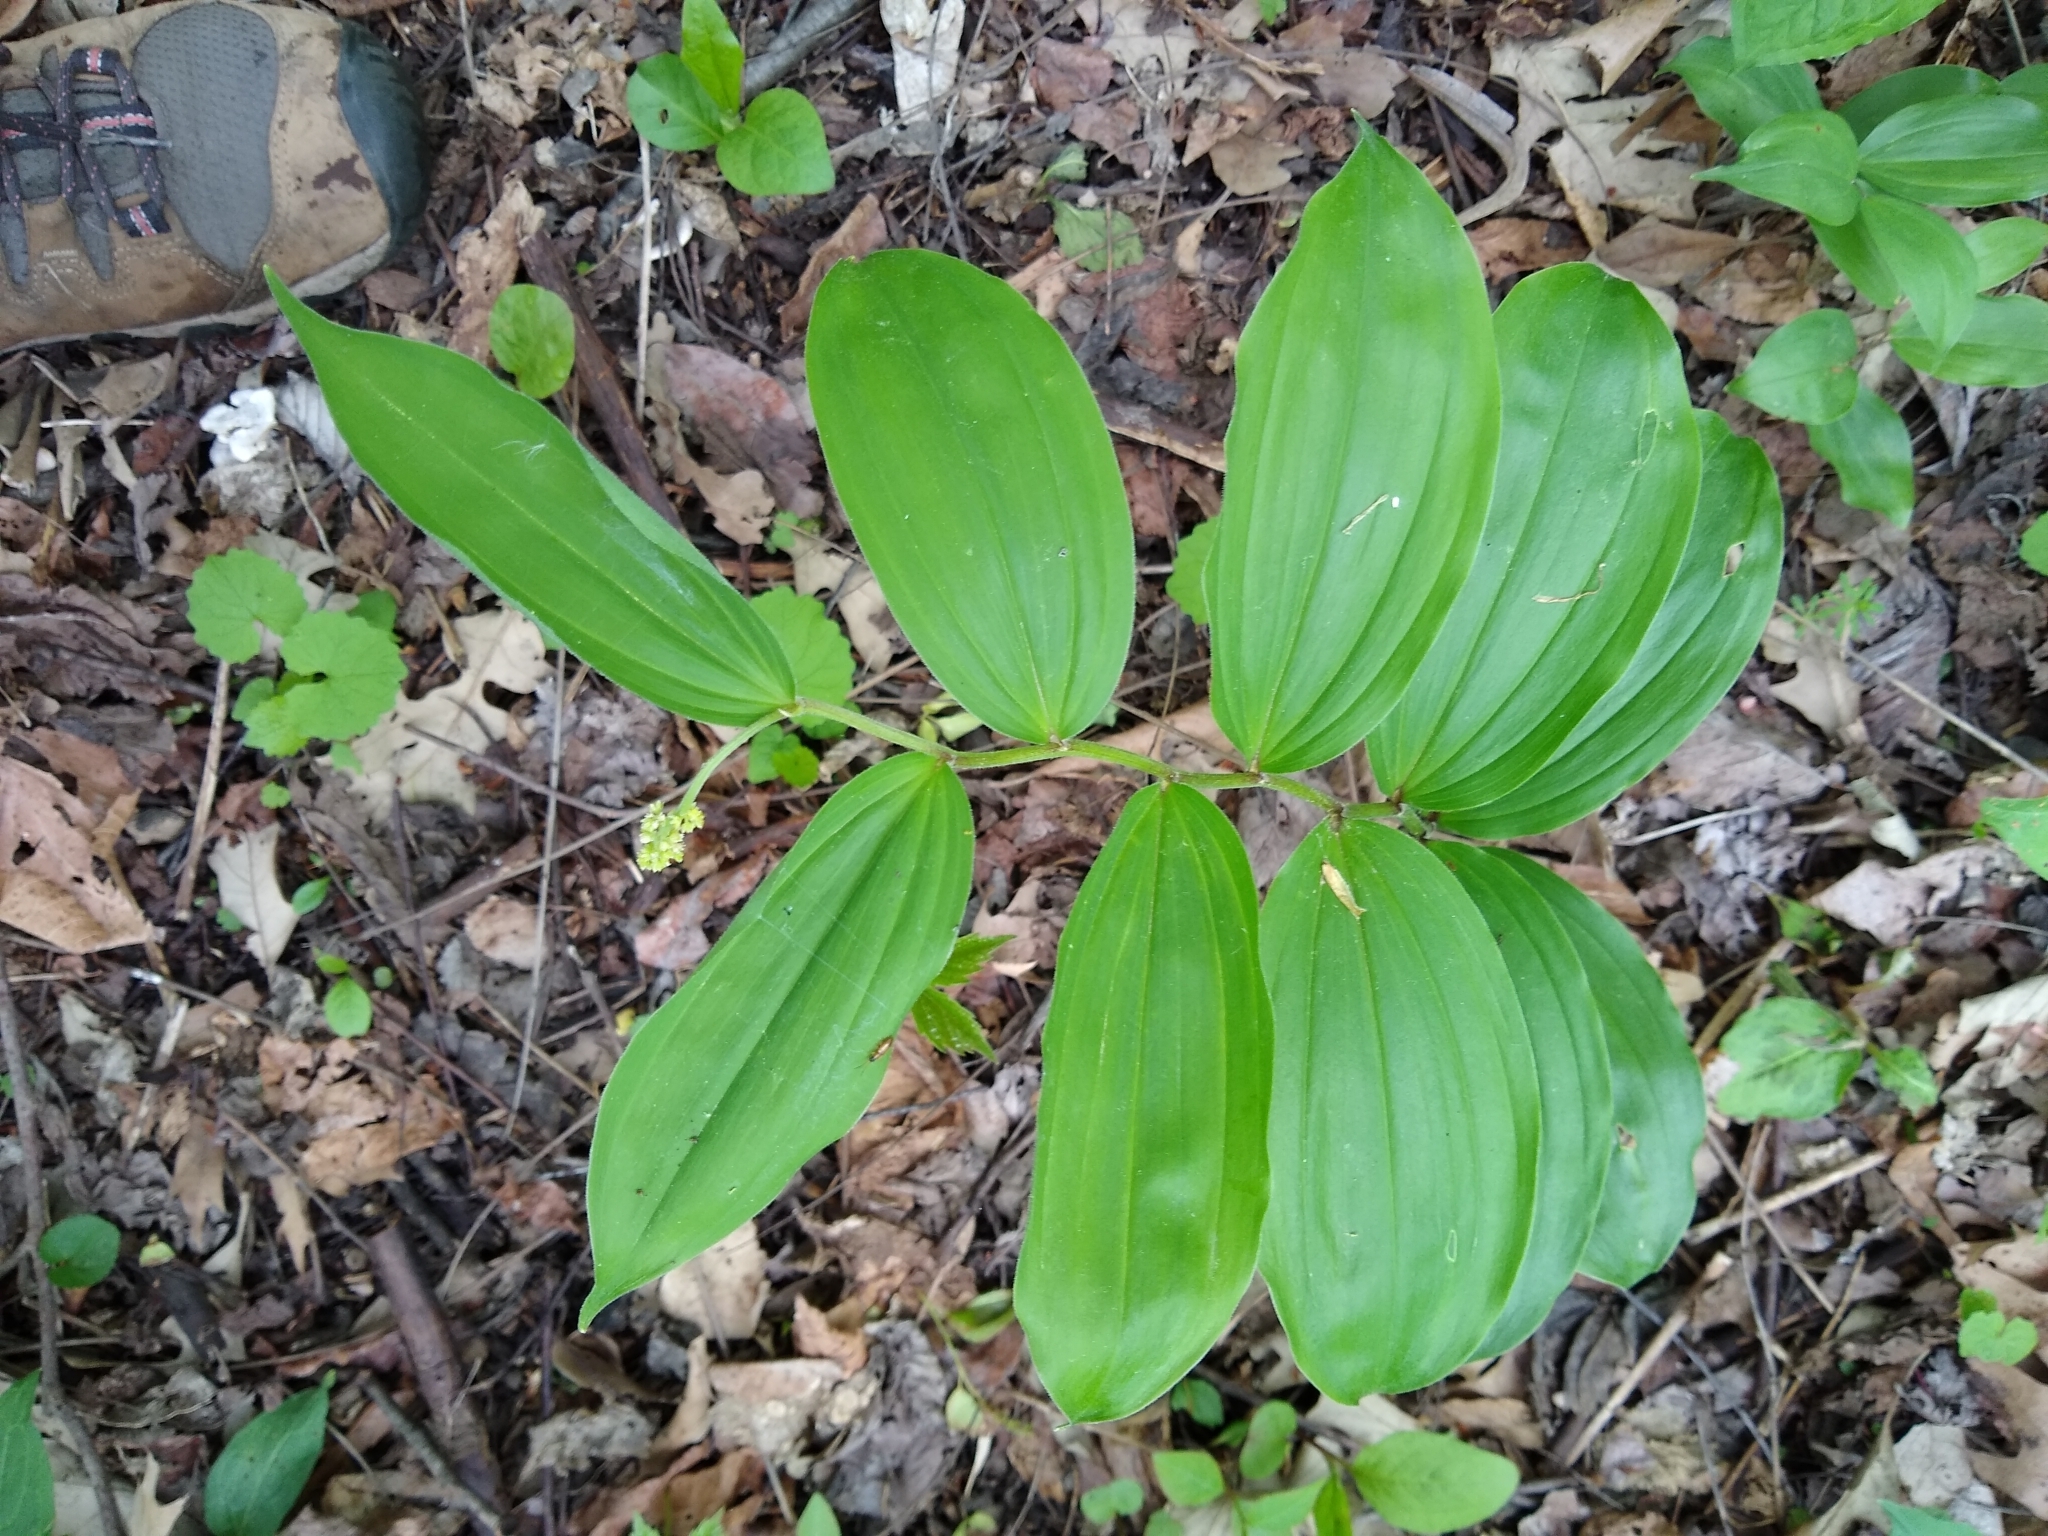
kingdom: Plantae
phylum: Tracheophyta
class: Liliopsida
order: Asparagales
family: Asparagaceae
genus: Maianthemum
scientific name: Maianthemum racemosum
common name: False spikenard
